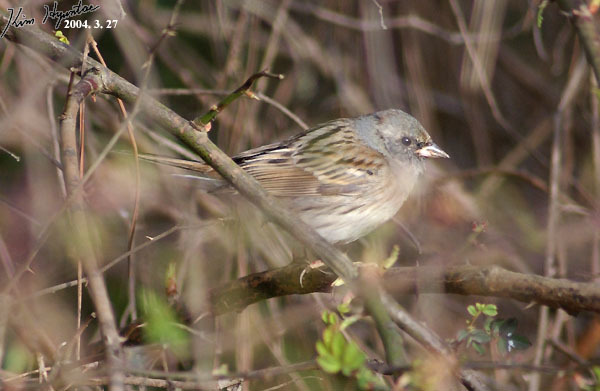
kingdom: Animalia
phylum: Chordata
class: Aves
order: Passeriformes
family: Emberizidae
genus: Emberiza
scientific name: Emberiza spodocephala
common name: Black-faced bunting
